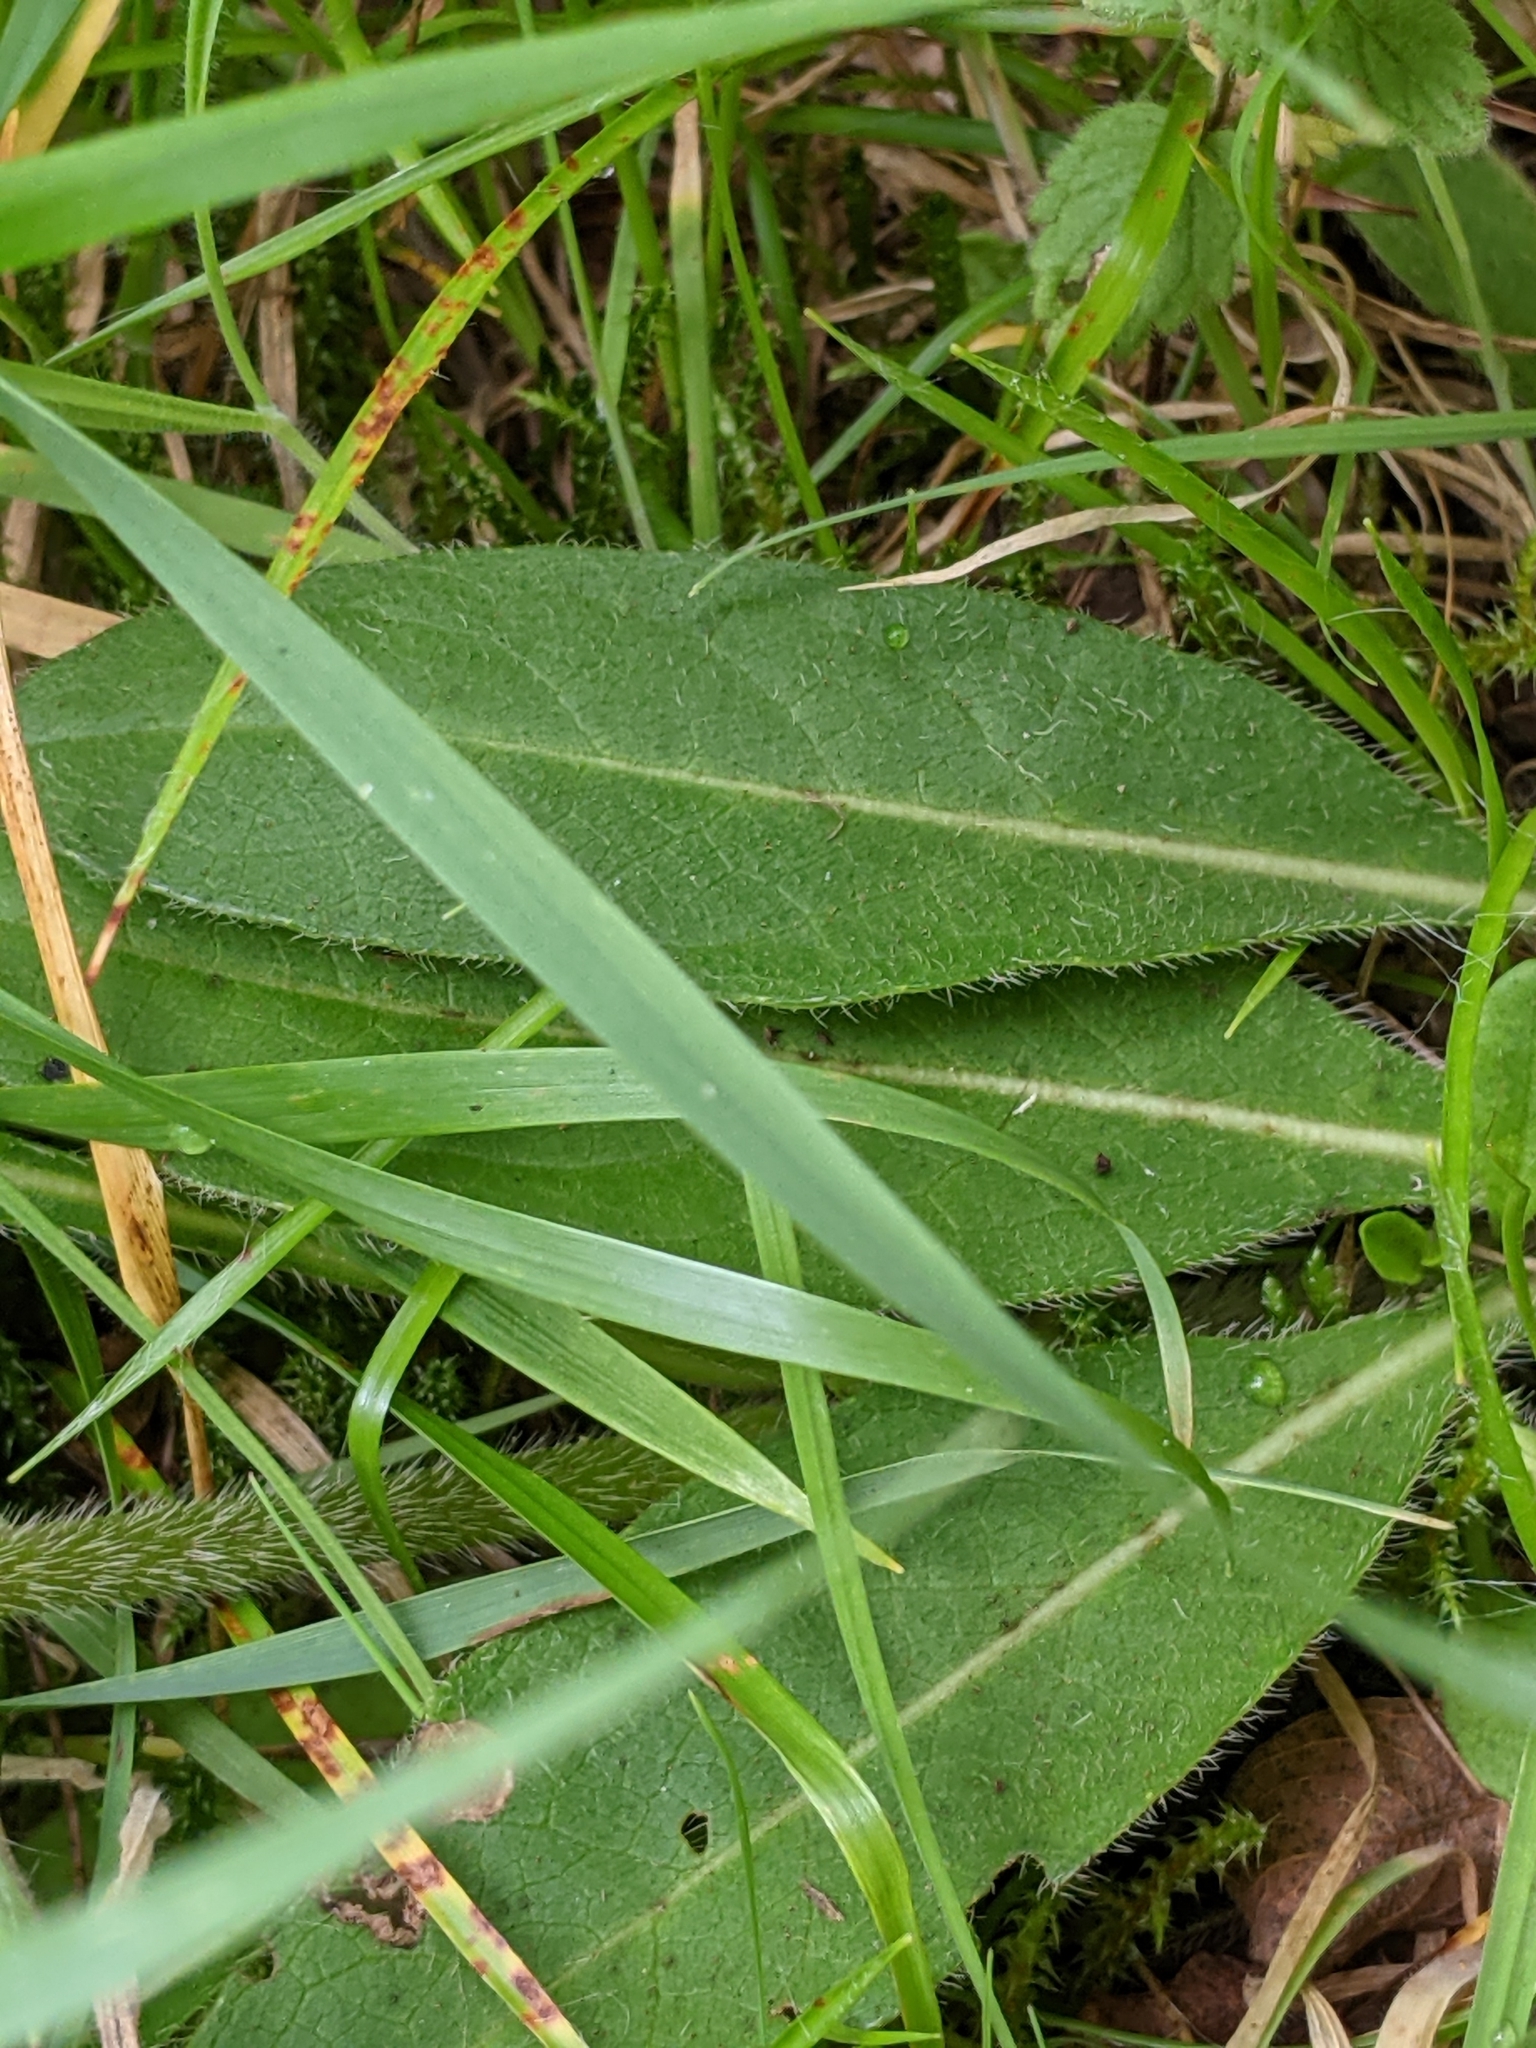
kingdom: Plantae
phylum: Tracheophyta
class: Magnoliopsida
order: Dipsacales
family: Caprifoliaceae
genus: Succisa
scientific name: Succisa pratensis
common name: Devil's-bit
